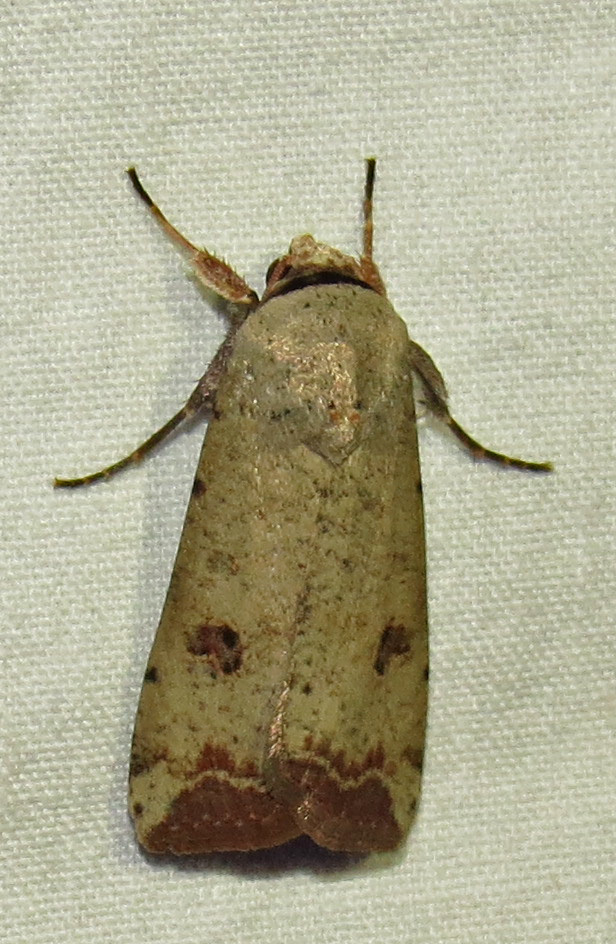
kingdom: Animalia
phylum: Arthropoda
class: Insecta
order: Lepidoptera
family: Noctuidae
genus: Anicla
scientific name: Anicla infecta
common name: Green cutworm
